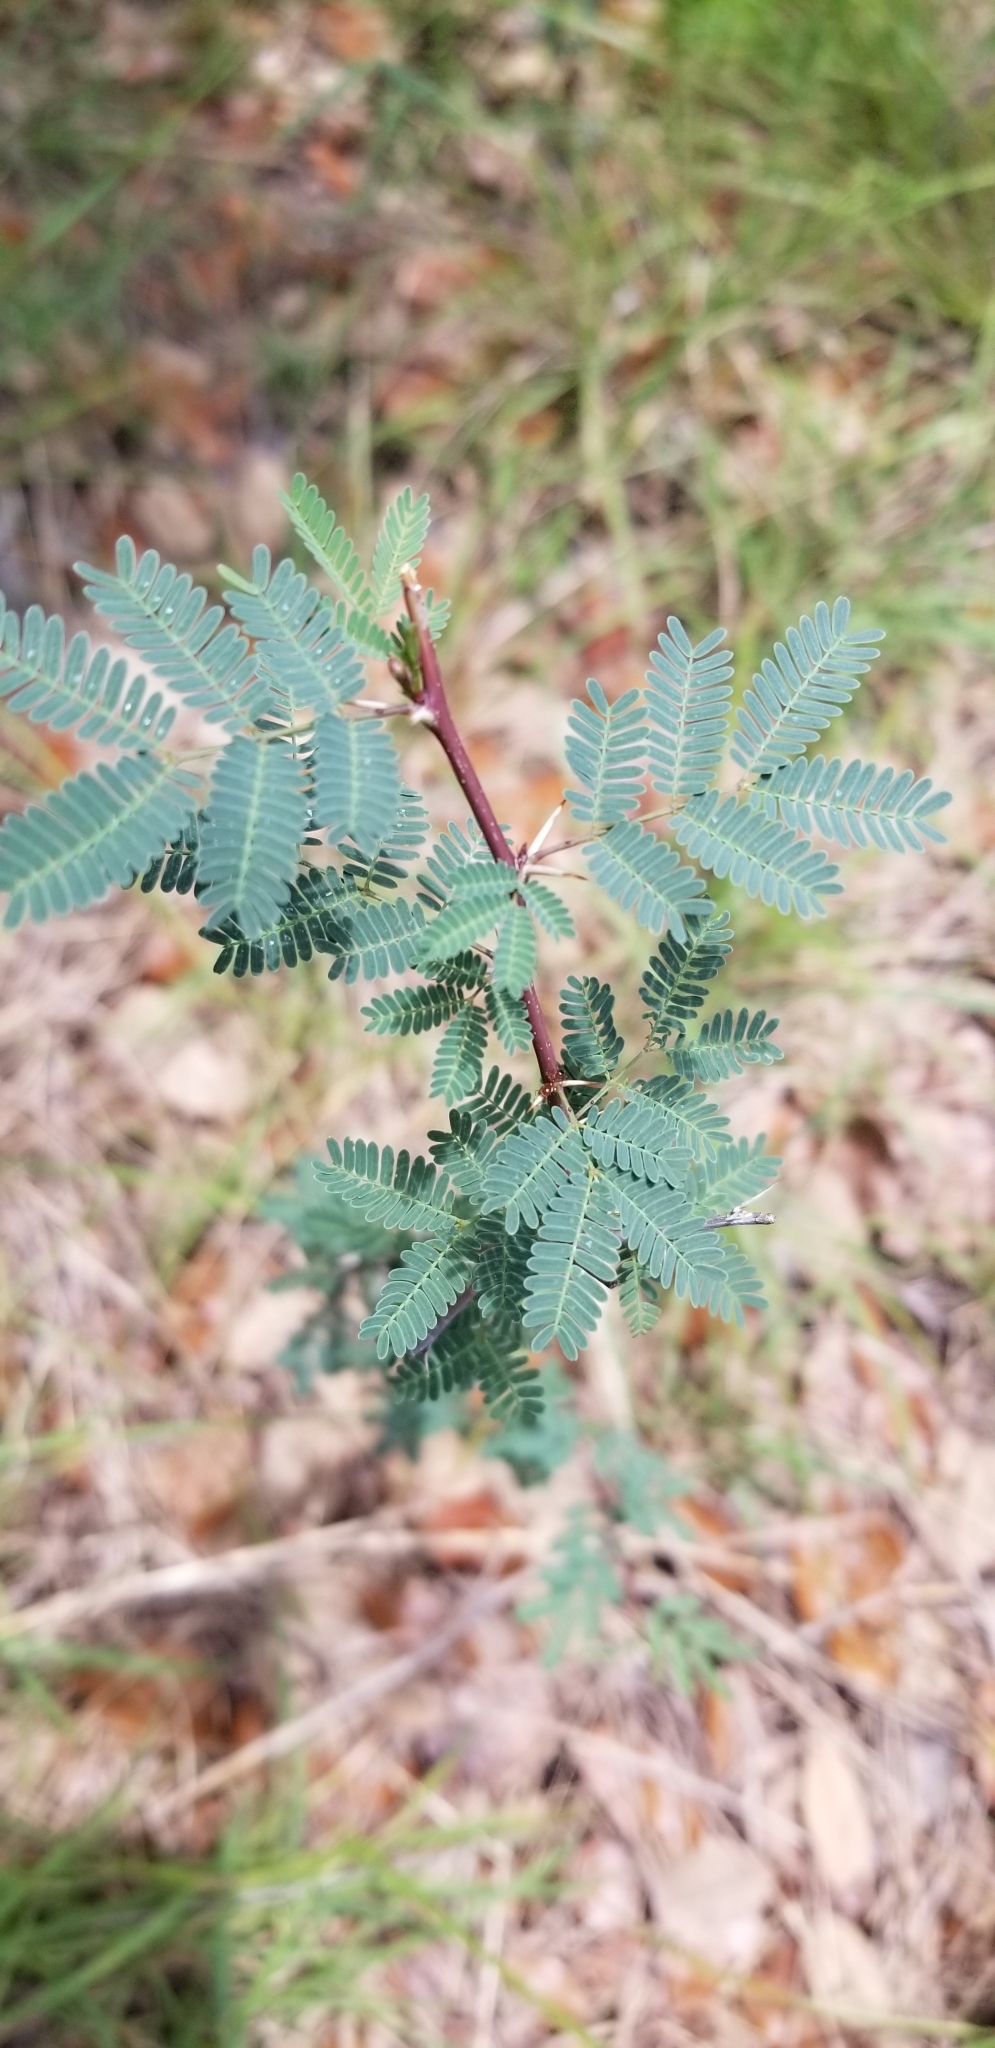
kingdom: Plantae
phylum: Tracheophyta
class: Magnoliopsida
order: Fabales
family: Fabaceae
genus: Vachellia
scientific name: Vachellia farnesiana
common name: Sweet acacia
